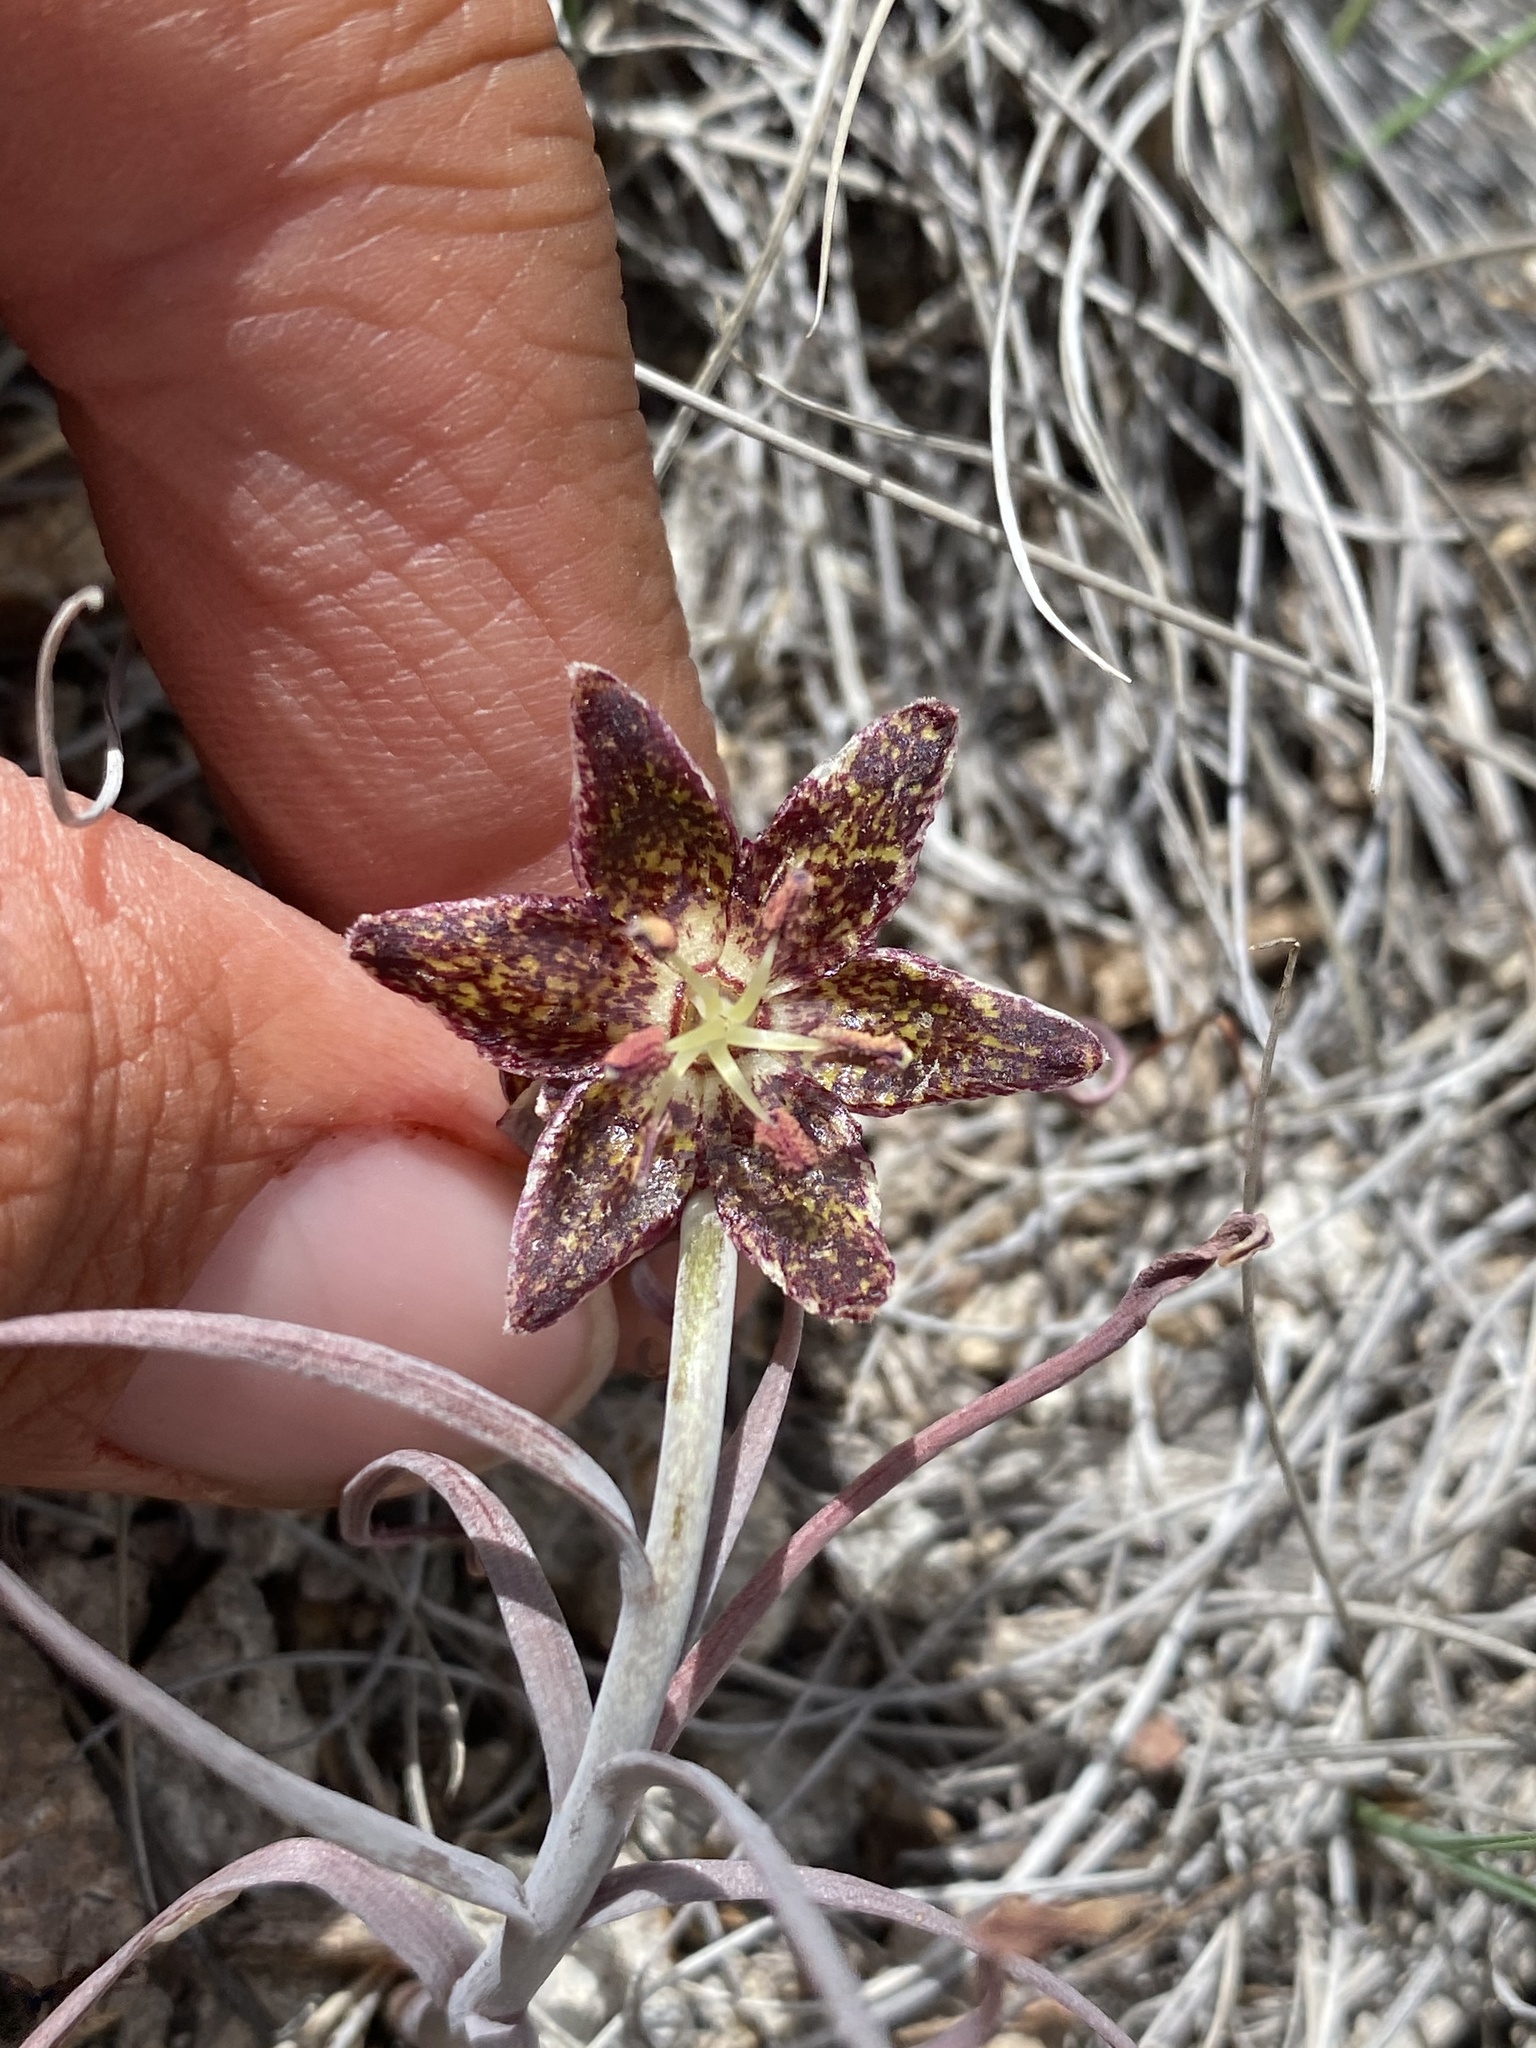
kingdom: Plantae
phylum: Tracheophyta
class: Liliopsida
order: Liliales
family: Liliaceae
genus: Fritillaria
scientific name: Fritillaria atropurpurea
